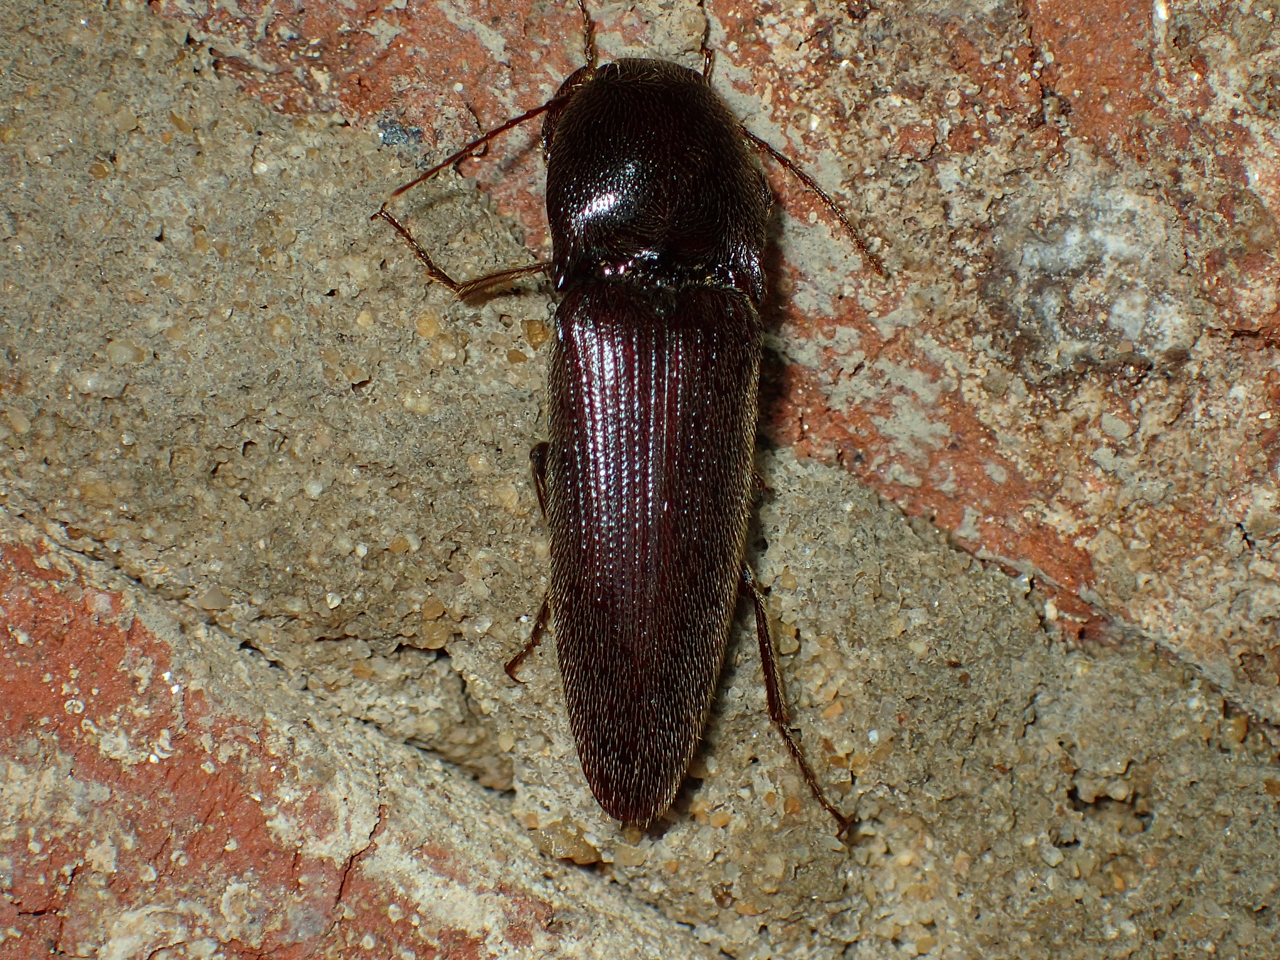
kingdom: Animalia
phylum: Arthropoda
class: Insecta
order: Coleoptera
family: Elateridae
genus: Melanotus
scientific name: Melanotus
